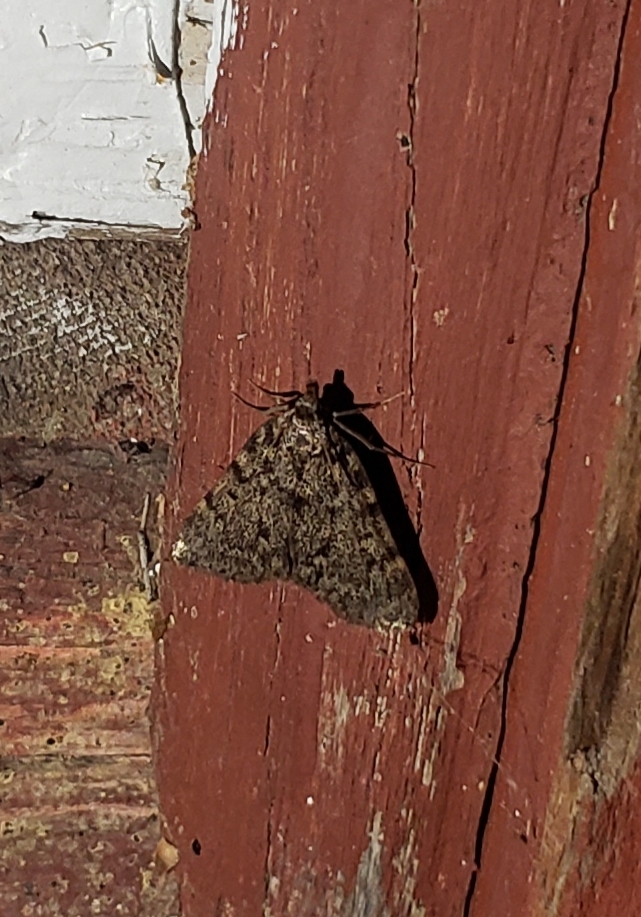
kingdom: Animalia
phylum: Arthropoda
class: Insecta
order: Lepidoptera
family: Pyralidae
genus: Aglossa
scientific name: Aglossa pinguinalis
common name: Large tabby
